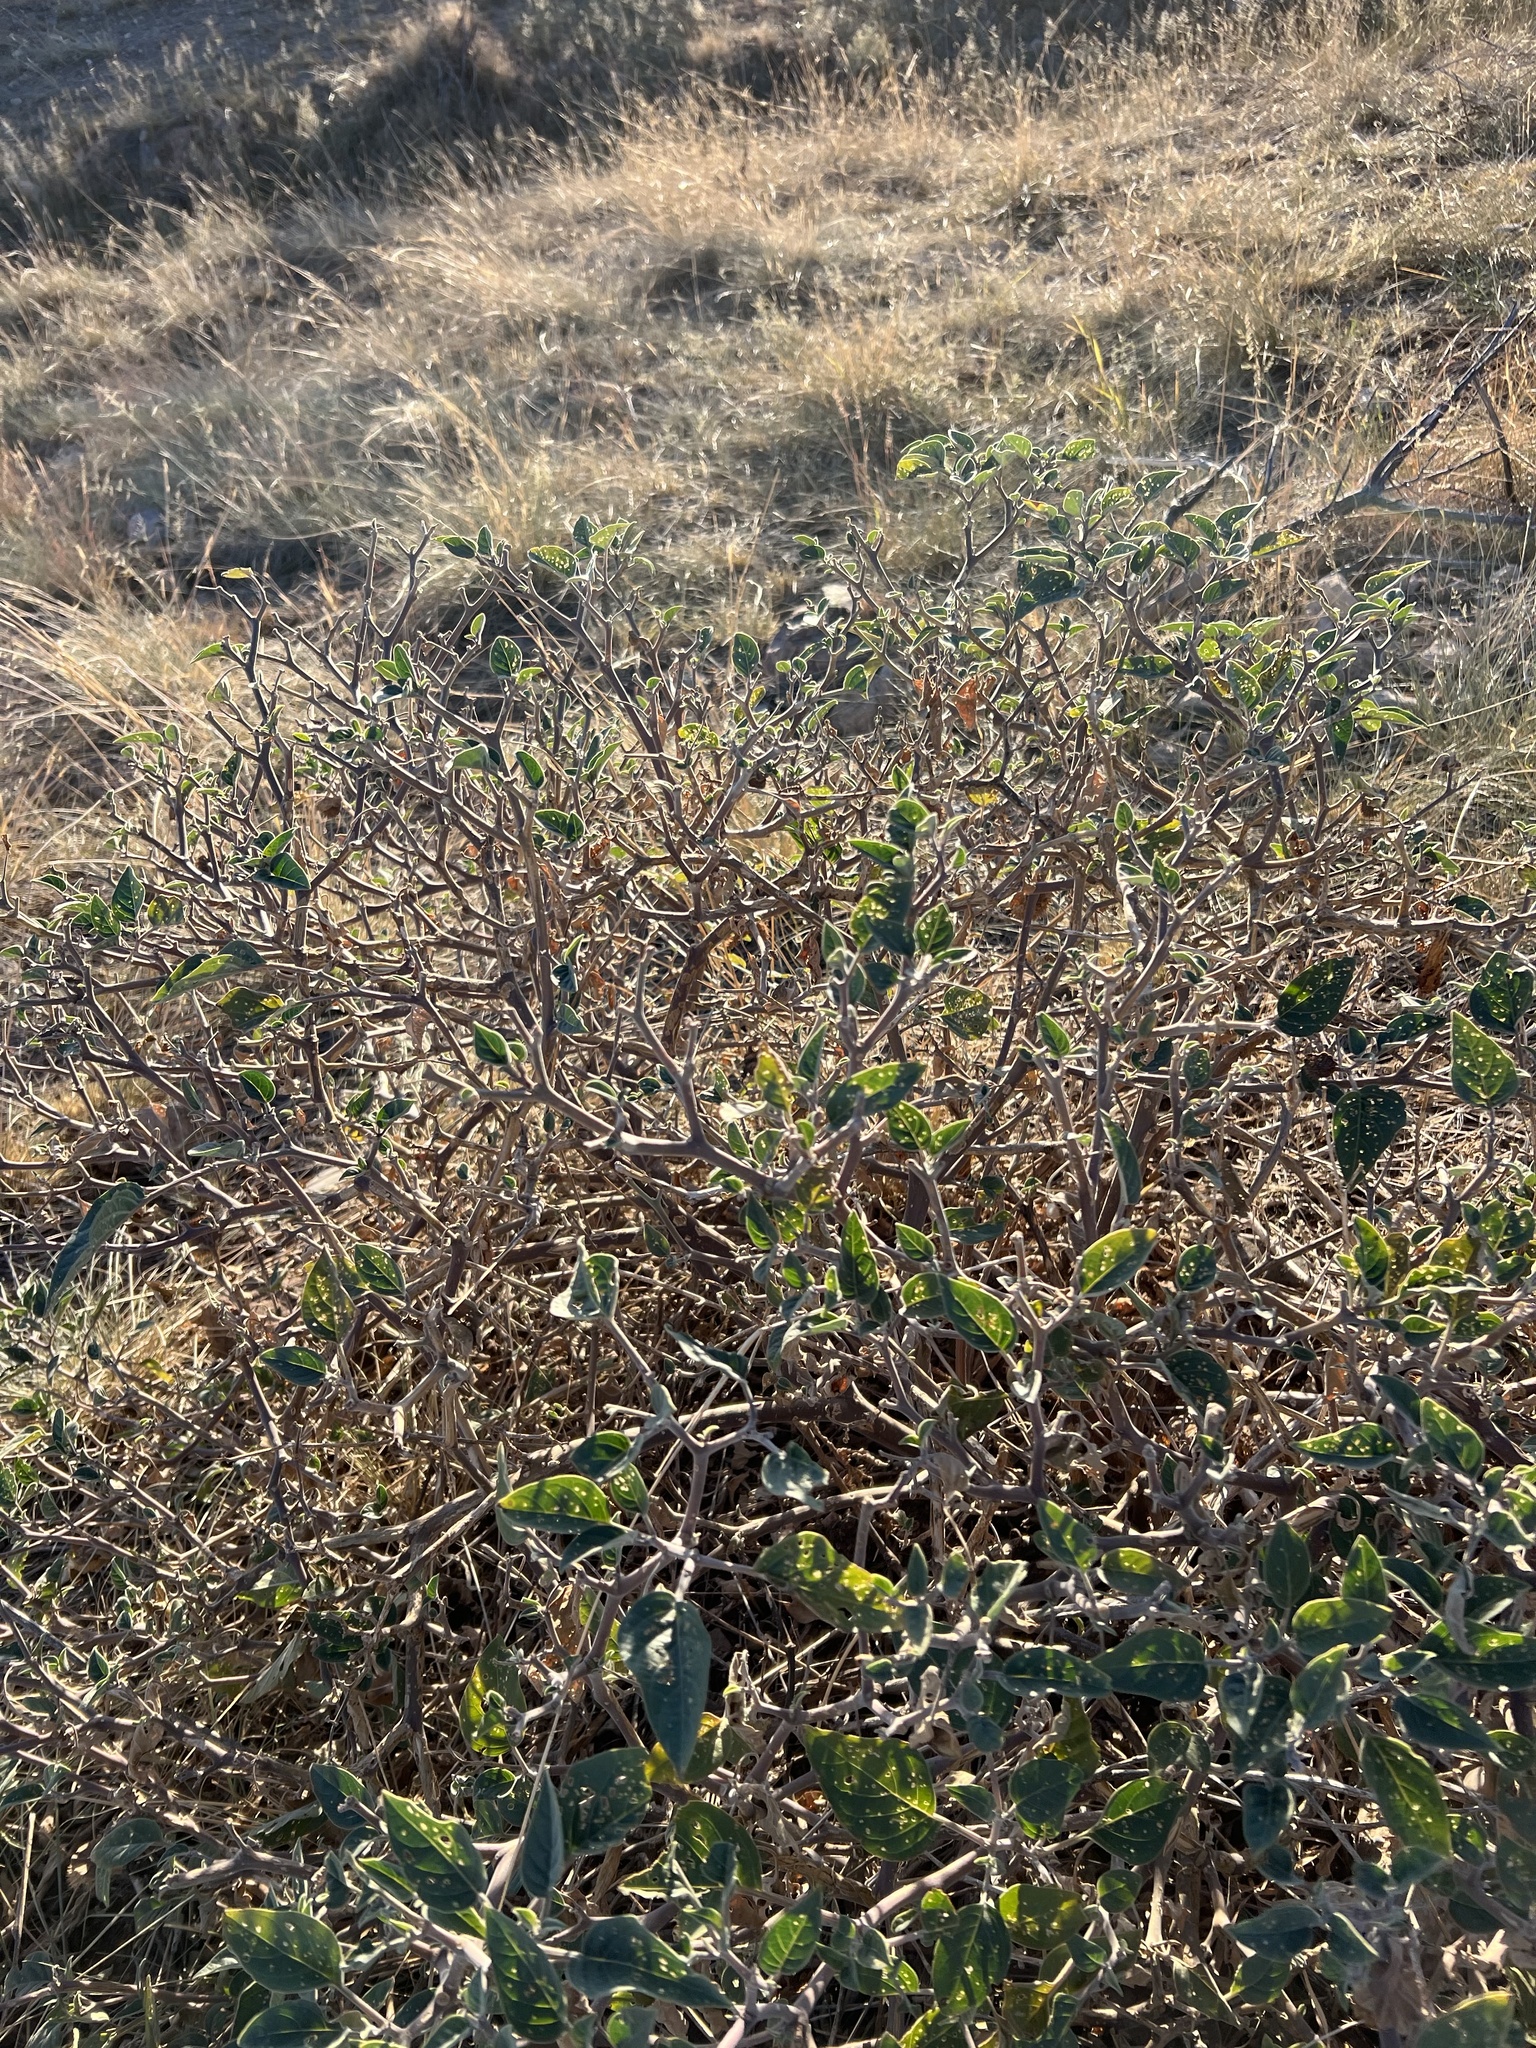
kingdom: Plantae
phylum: Tracheophyta
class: Magnoliopsida
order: Solanales
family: Solanaceae
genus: Datura
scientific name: Datura wrightii
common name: Sacred thorn-apple
